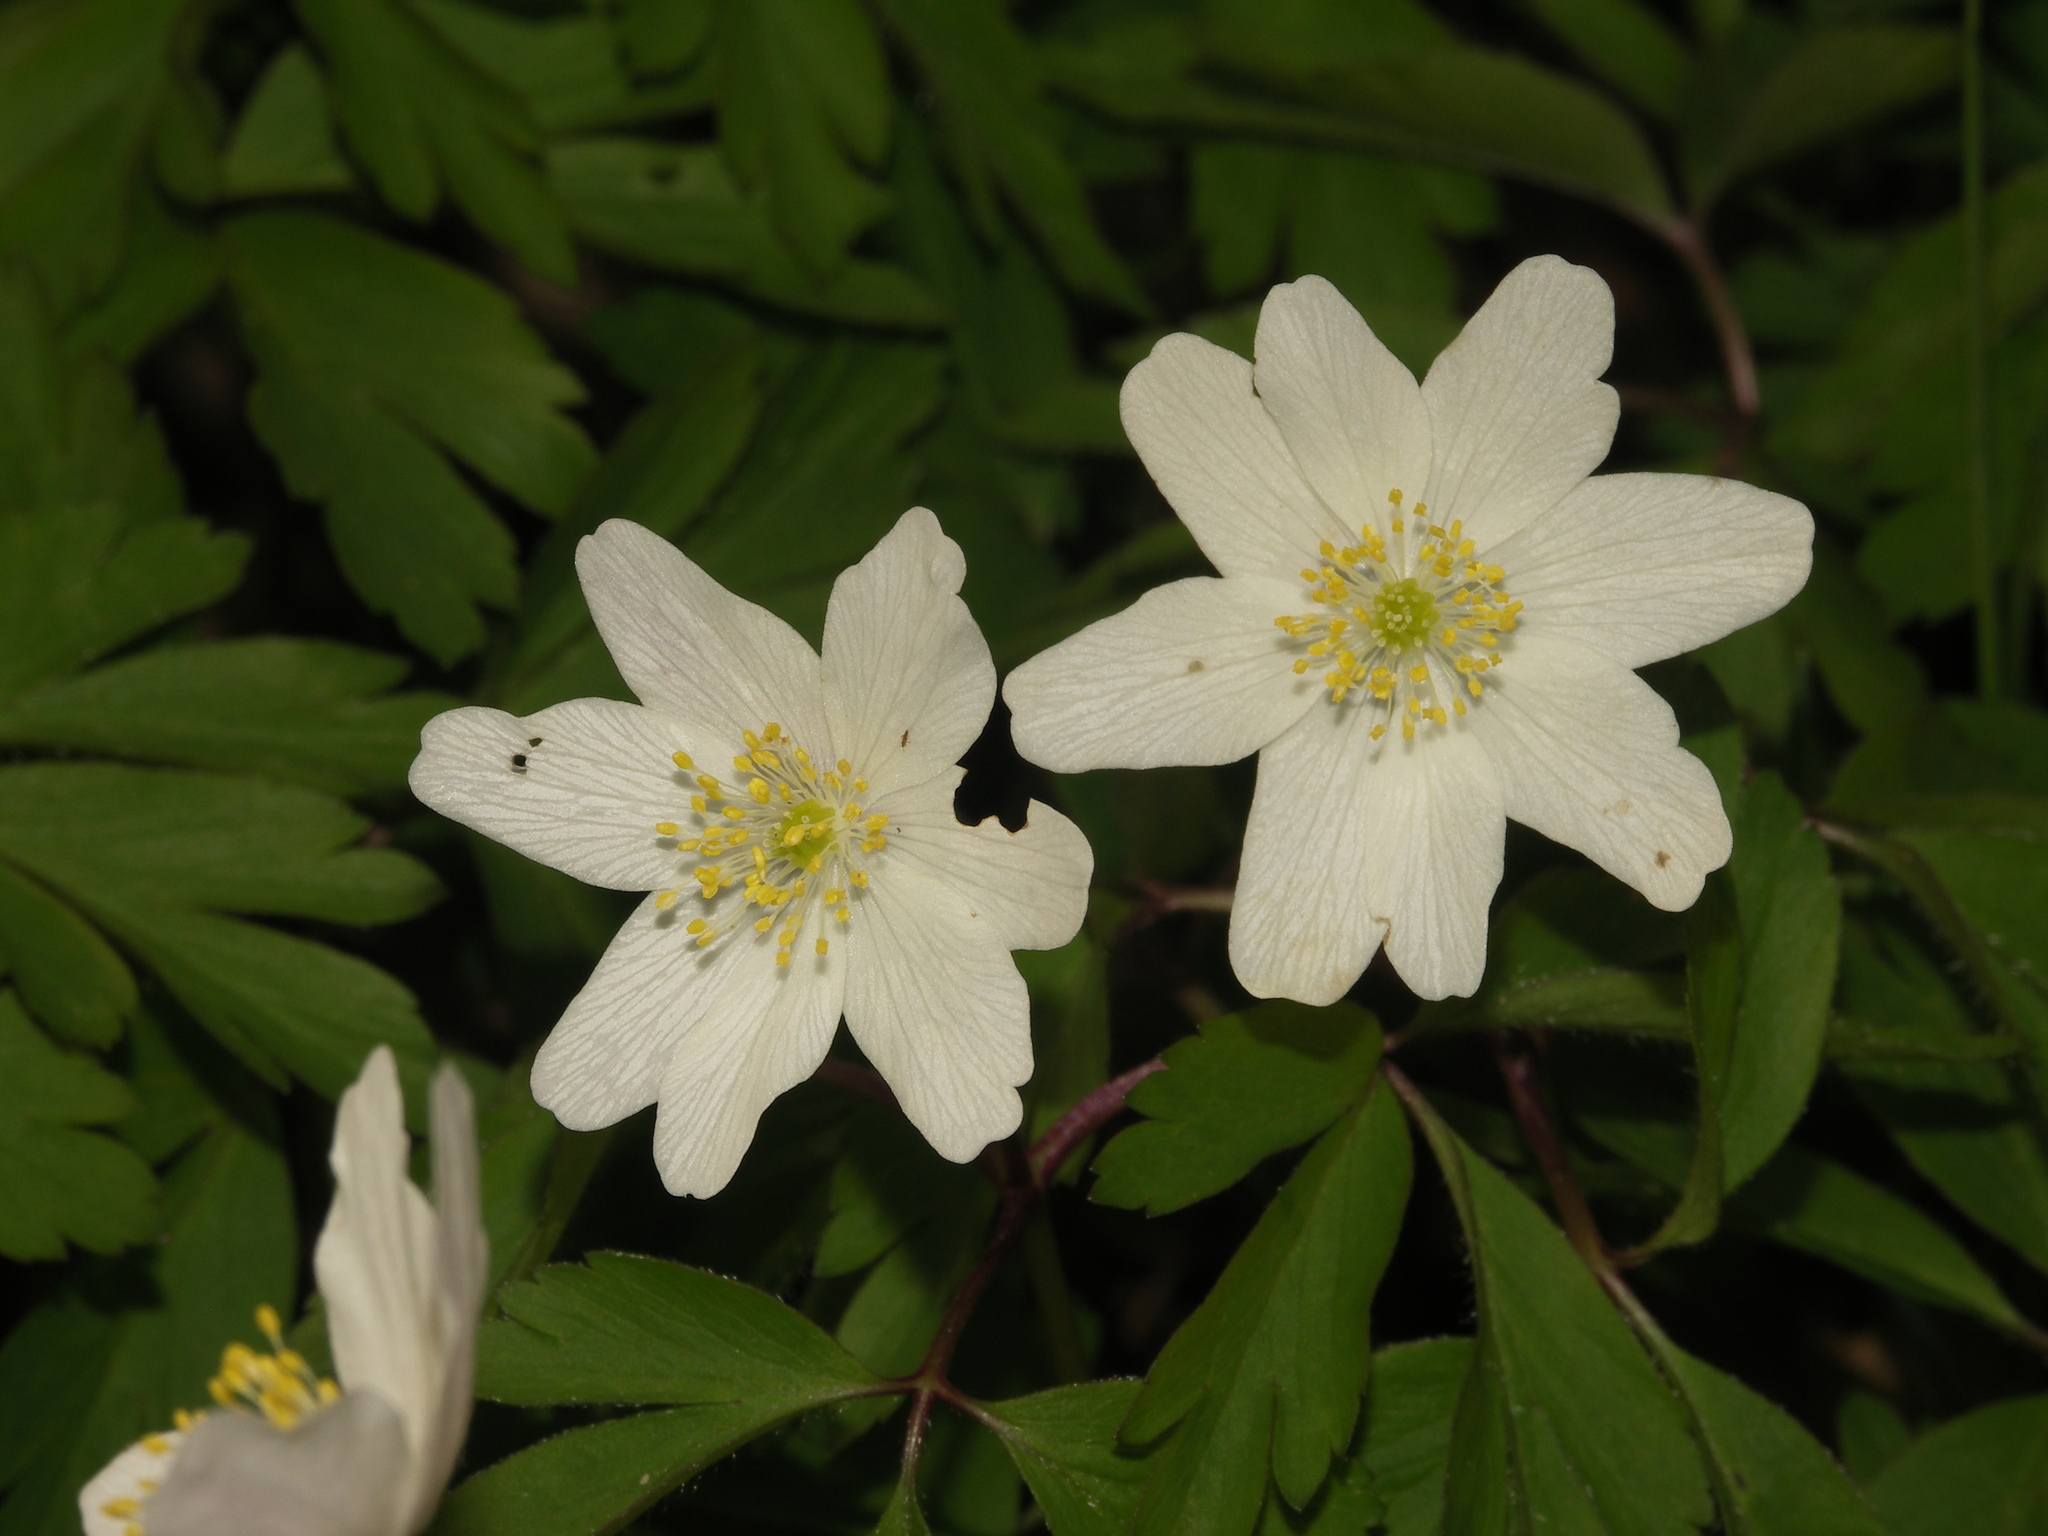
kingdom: Plantae
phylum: Tracheophyta
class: Magnoliopsida
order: Ranunculales
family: Ranunculaceae
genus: Anemone
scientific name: Anemone nemorosa
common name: Wood anemone
